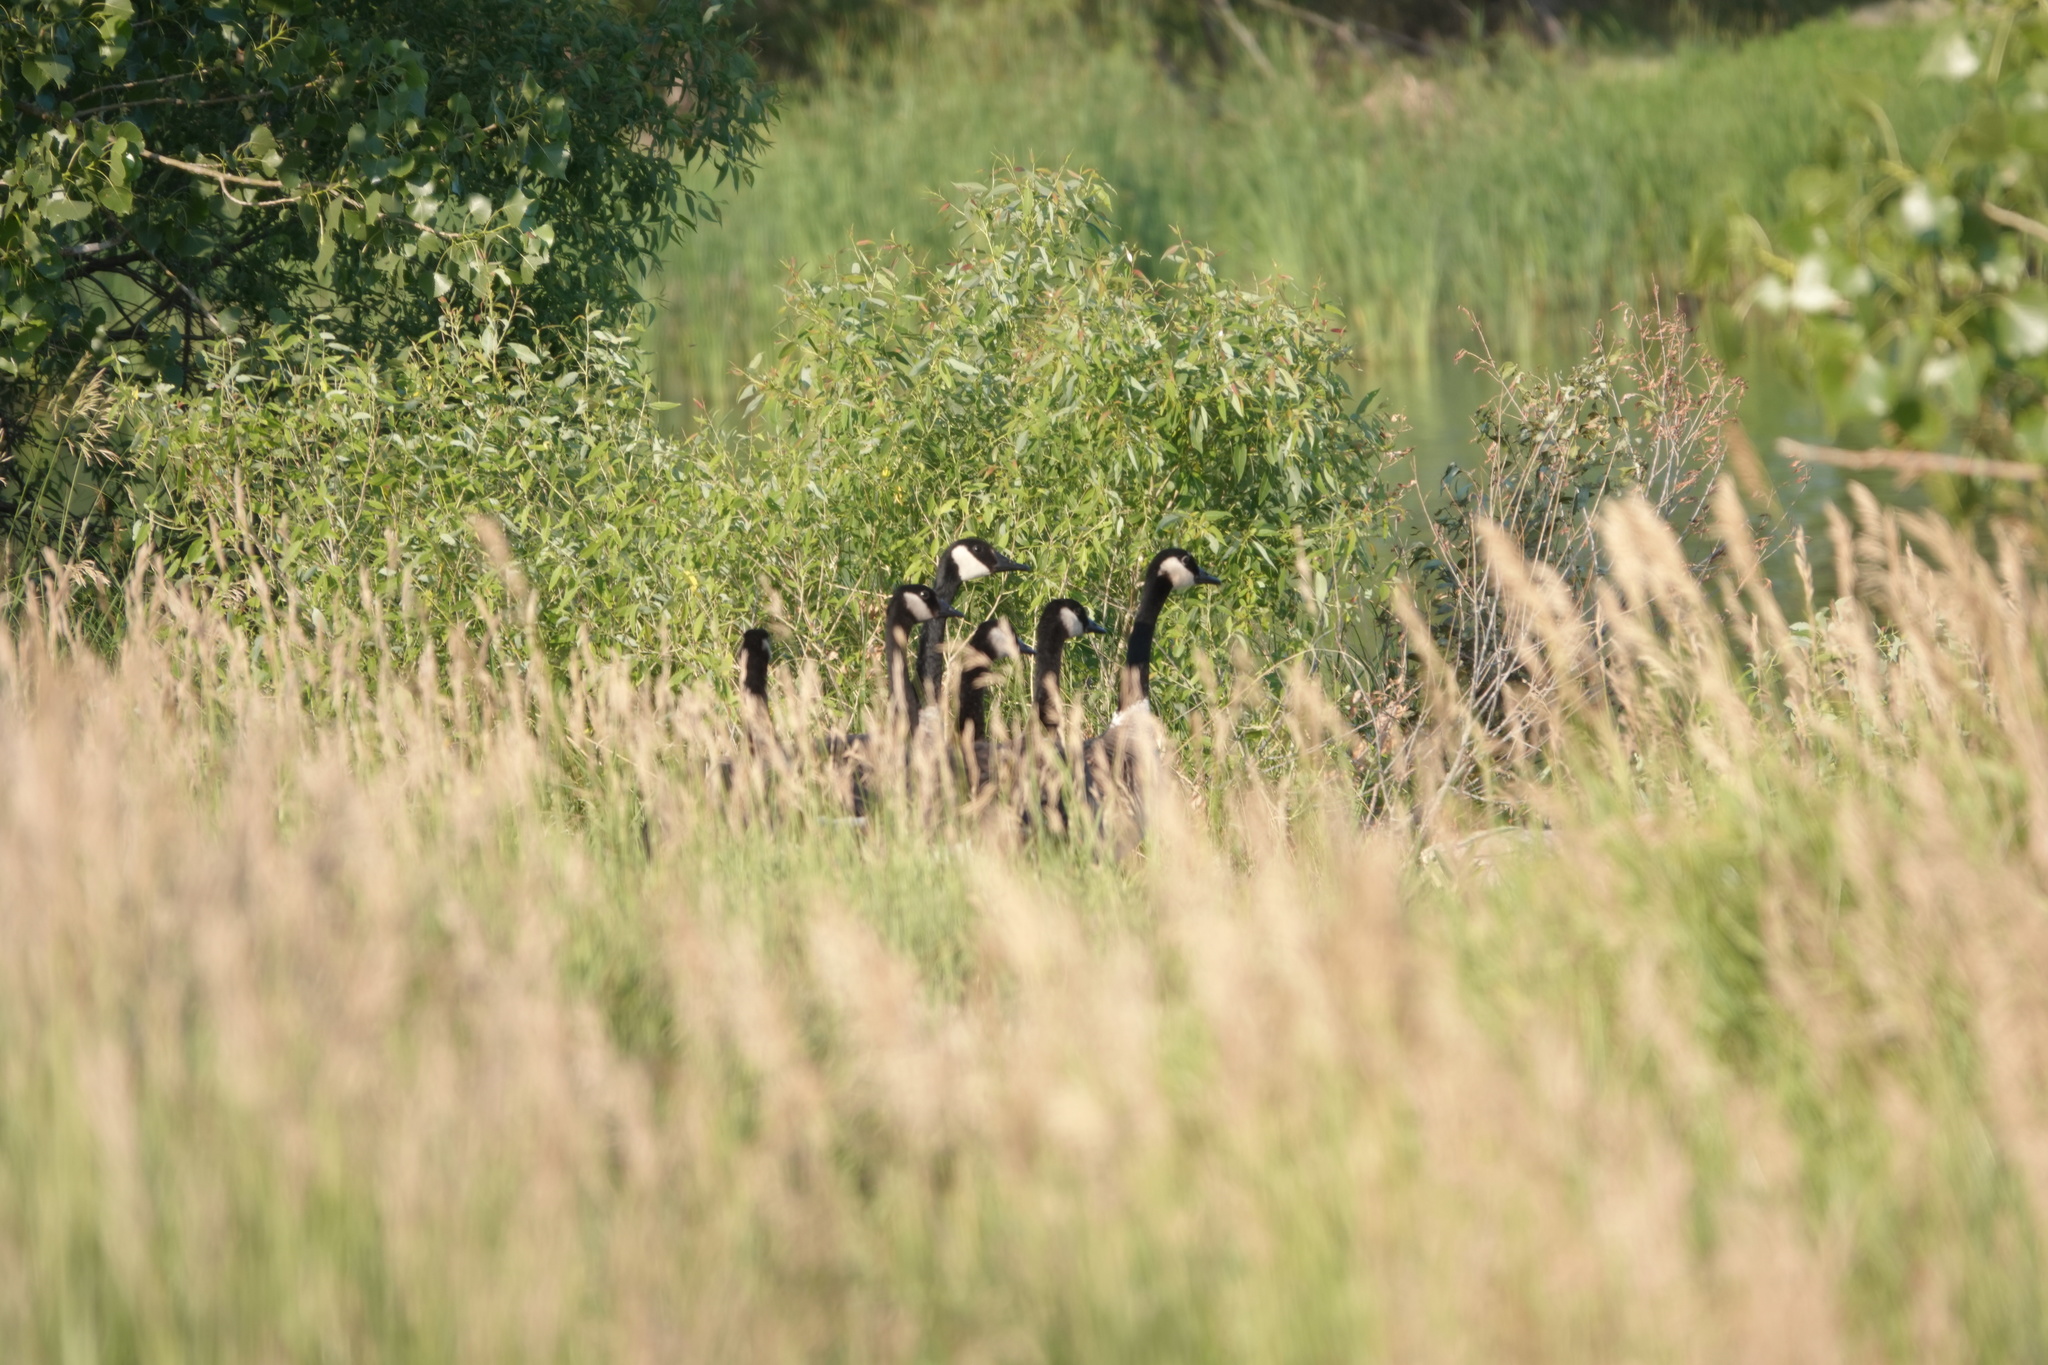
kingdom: Animalia
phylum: Chordata
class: Aves
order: Anseriformes
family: Anatidae
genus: Branta
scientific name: Branta canadensis
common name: Canada goose
